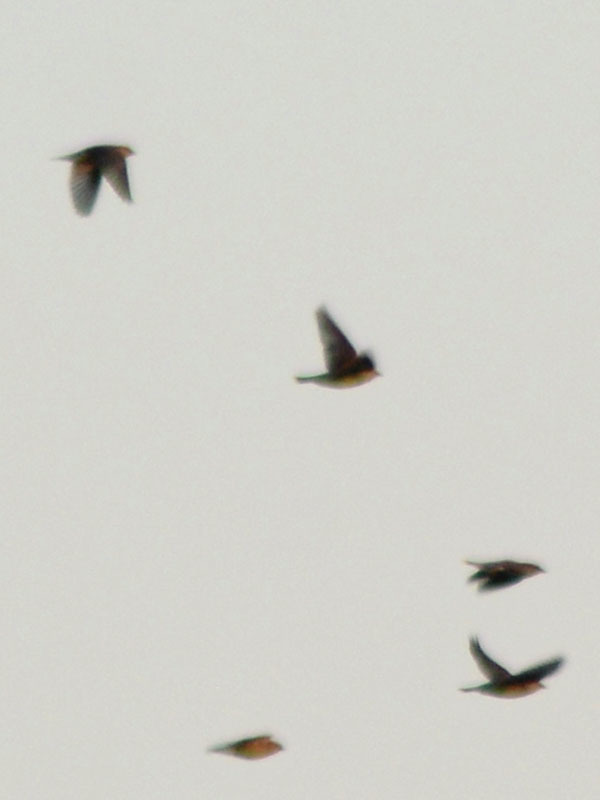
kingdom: Animalia
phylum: Chordata
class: Aves
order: Passeriformes
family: Bombycillidae
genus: Bombycilla
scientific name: Bombycilla cedrorum
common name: Cedar waxwing
